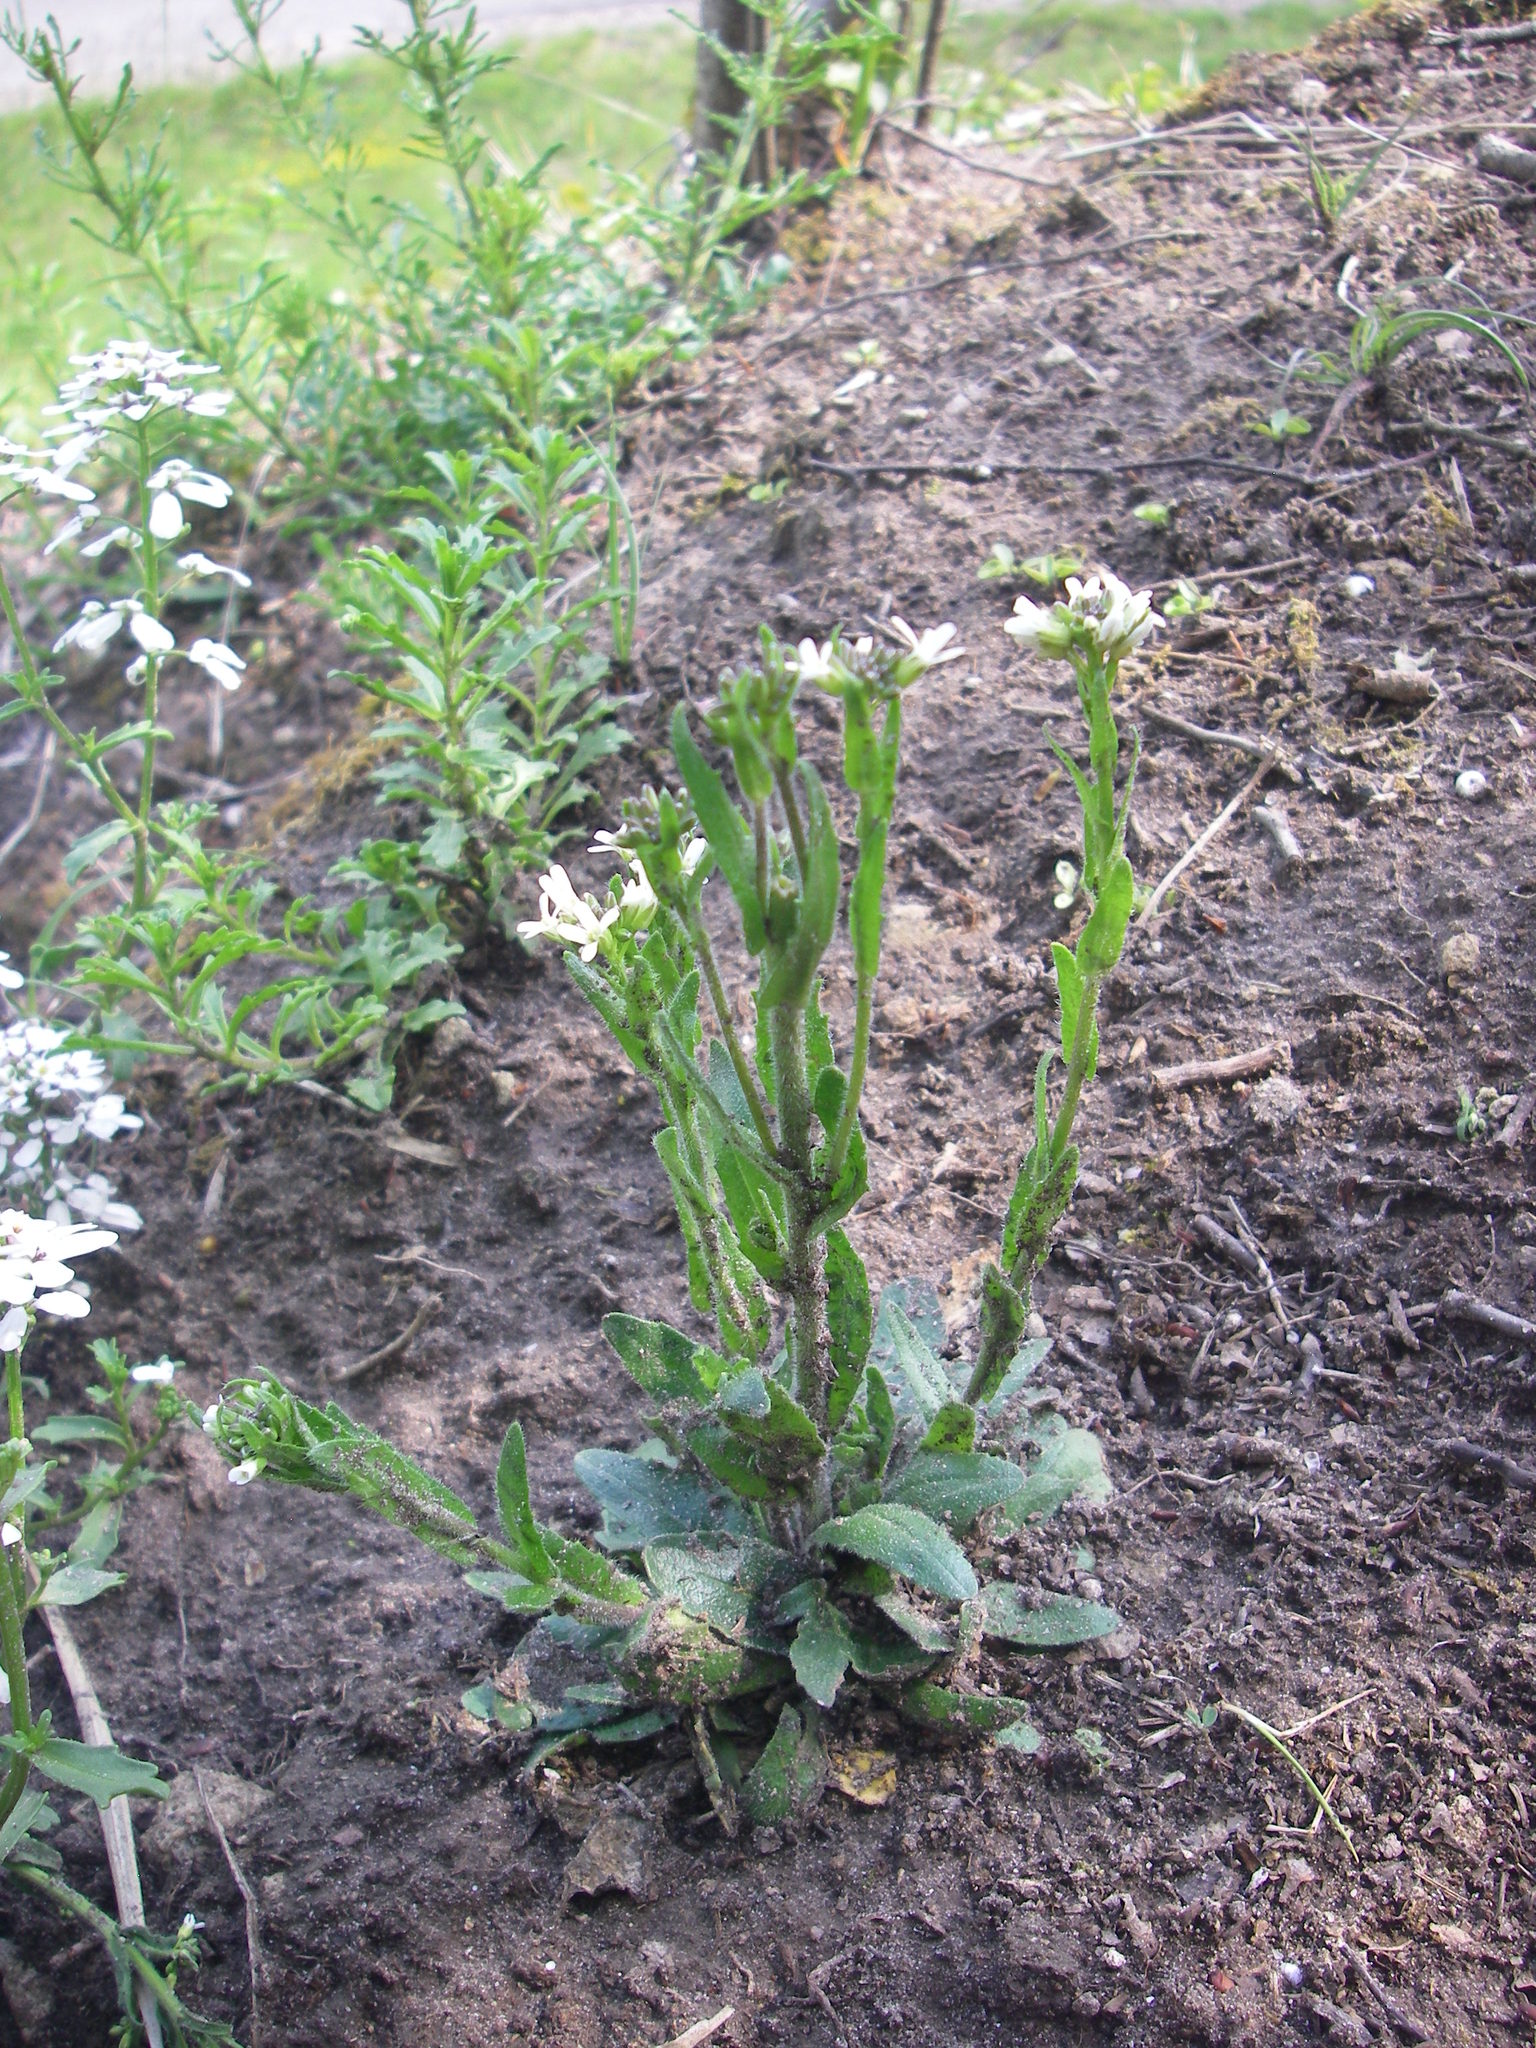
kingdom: Plantae
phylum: Tracheophyta
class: Magnoliopsida
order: Brassicales
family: Brassicaceae
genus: Arabis
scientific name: Arabis hirsuta
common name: Hairy rock-cress
